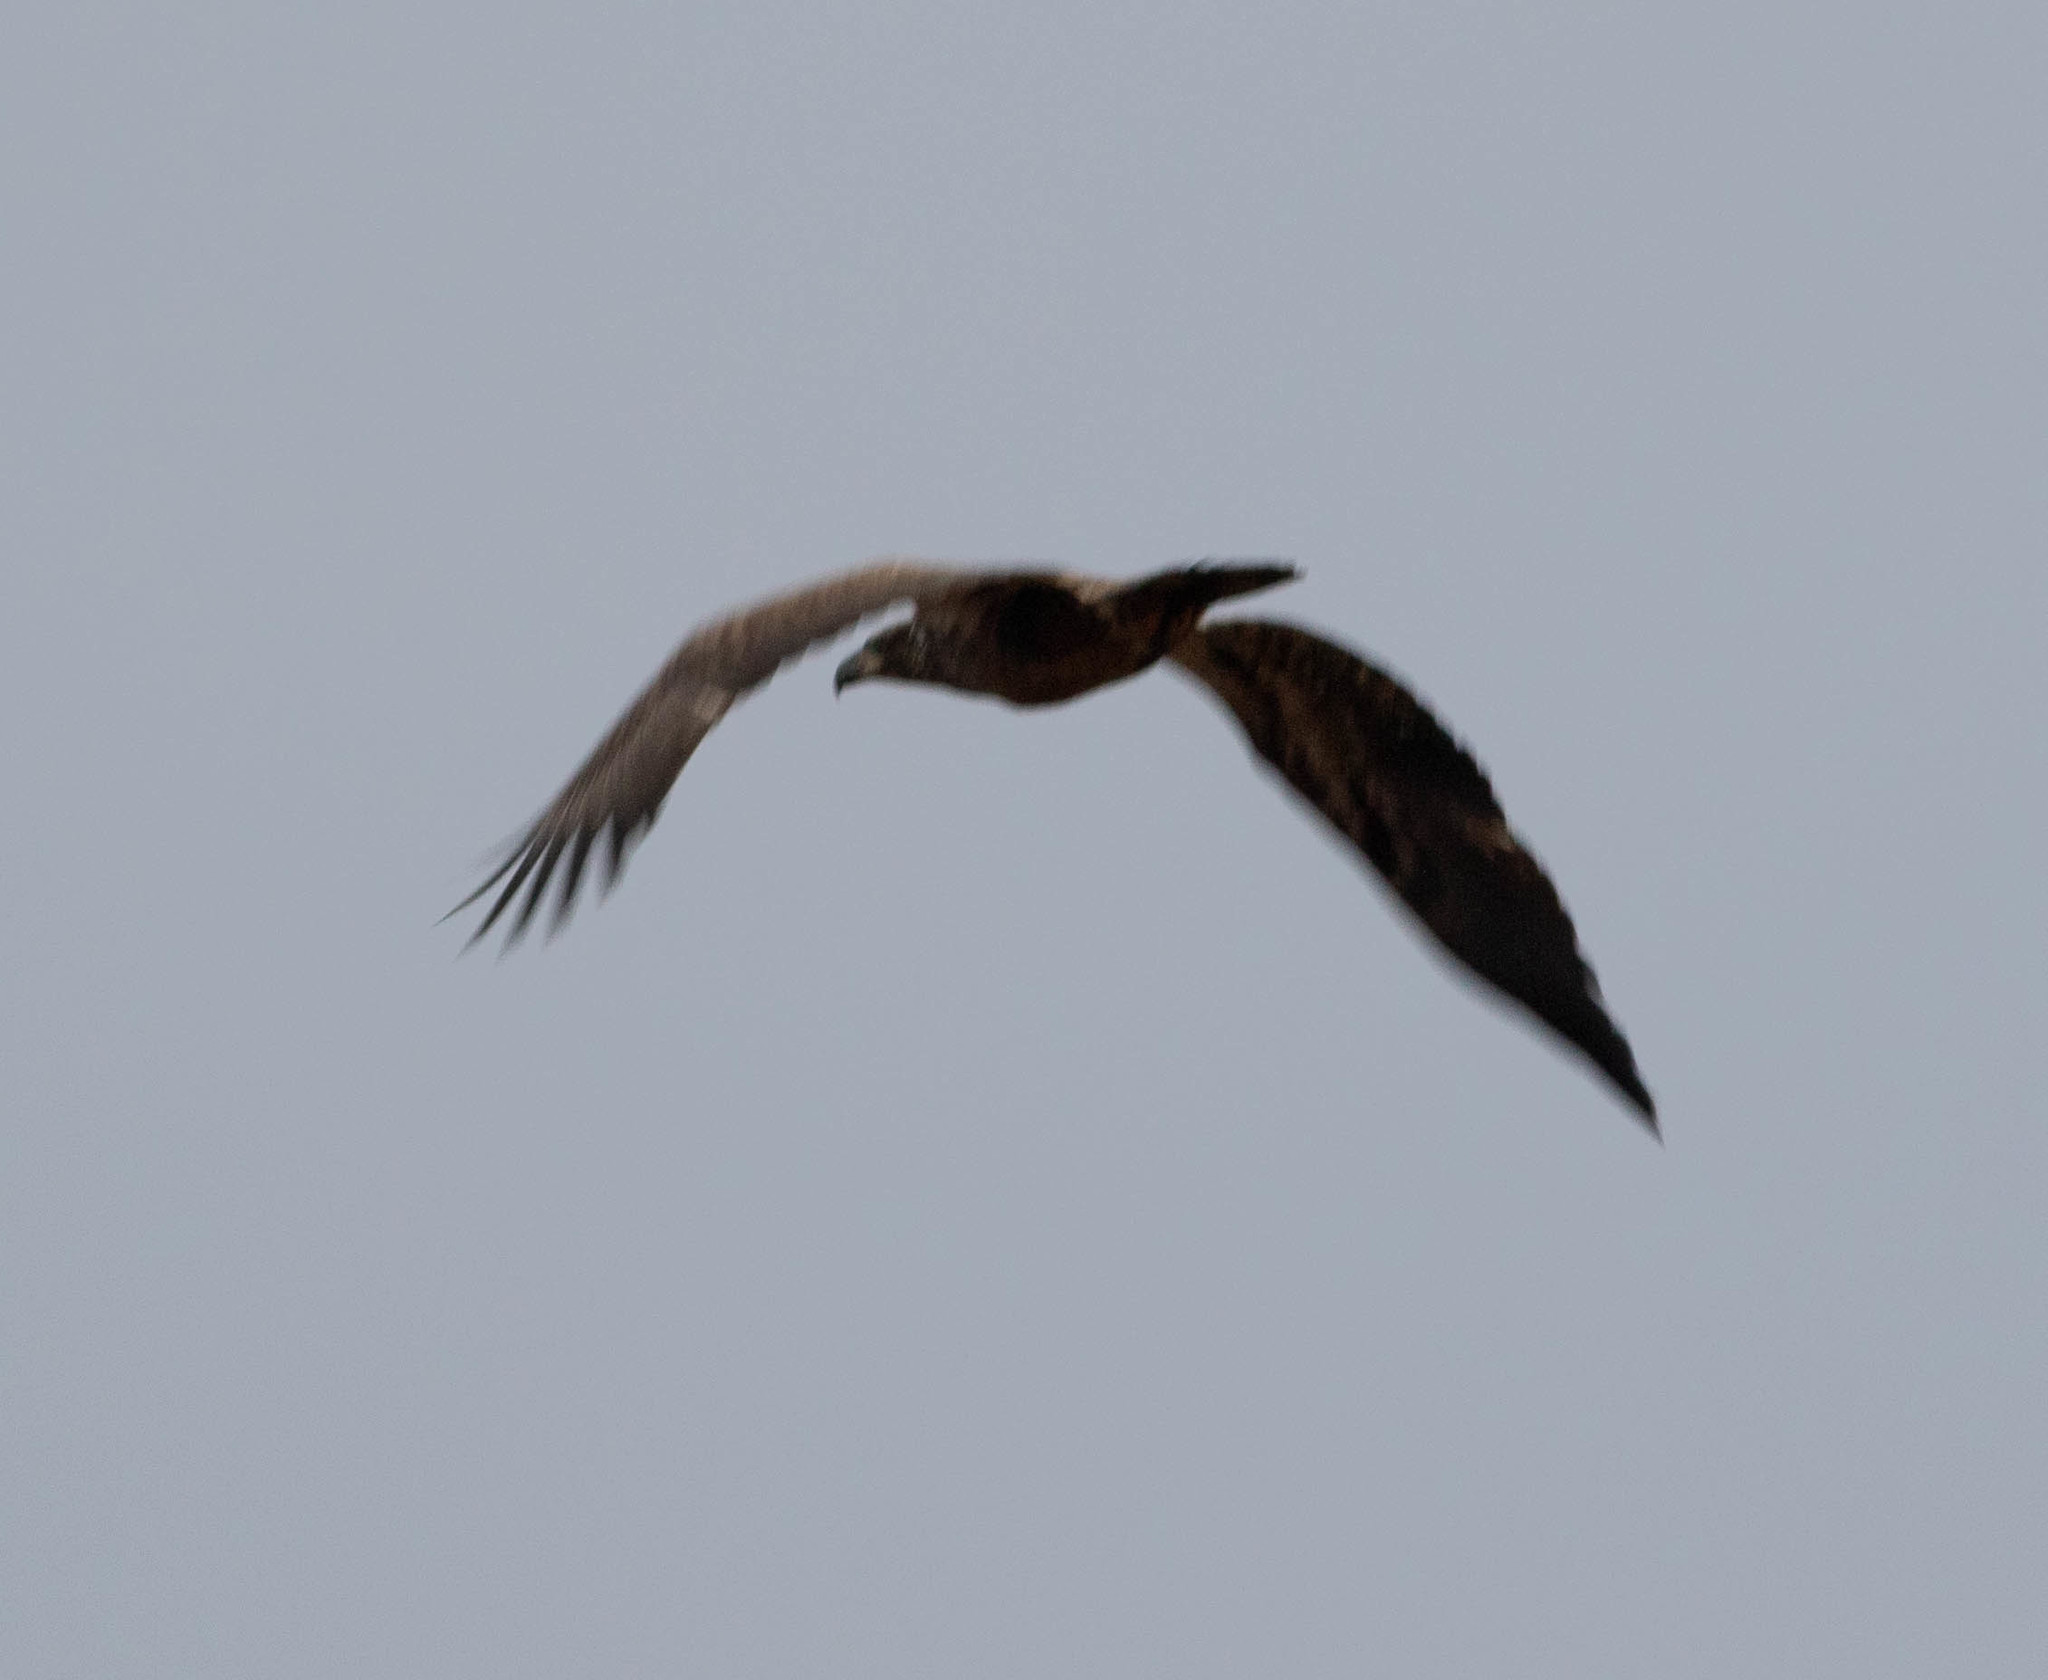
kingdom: Animalia
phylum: Chordata
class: Aves
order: Accipitriformes
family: Accipitridae
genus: Haliaeetus
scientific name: Haliaeetus leucocephalus
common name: Bald eagle
